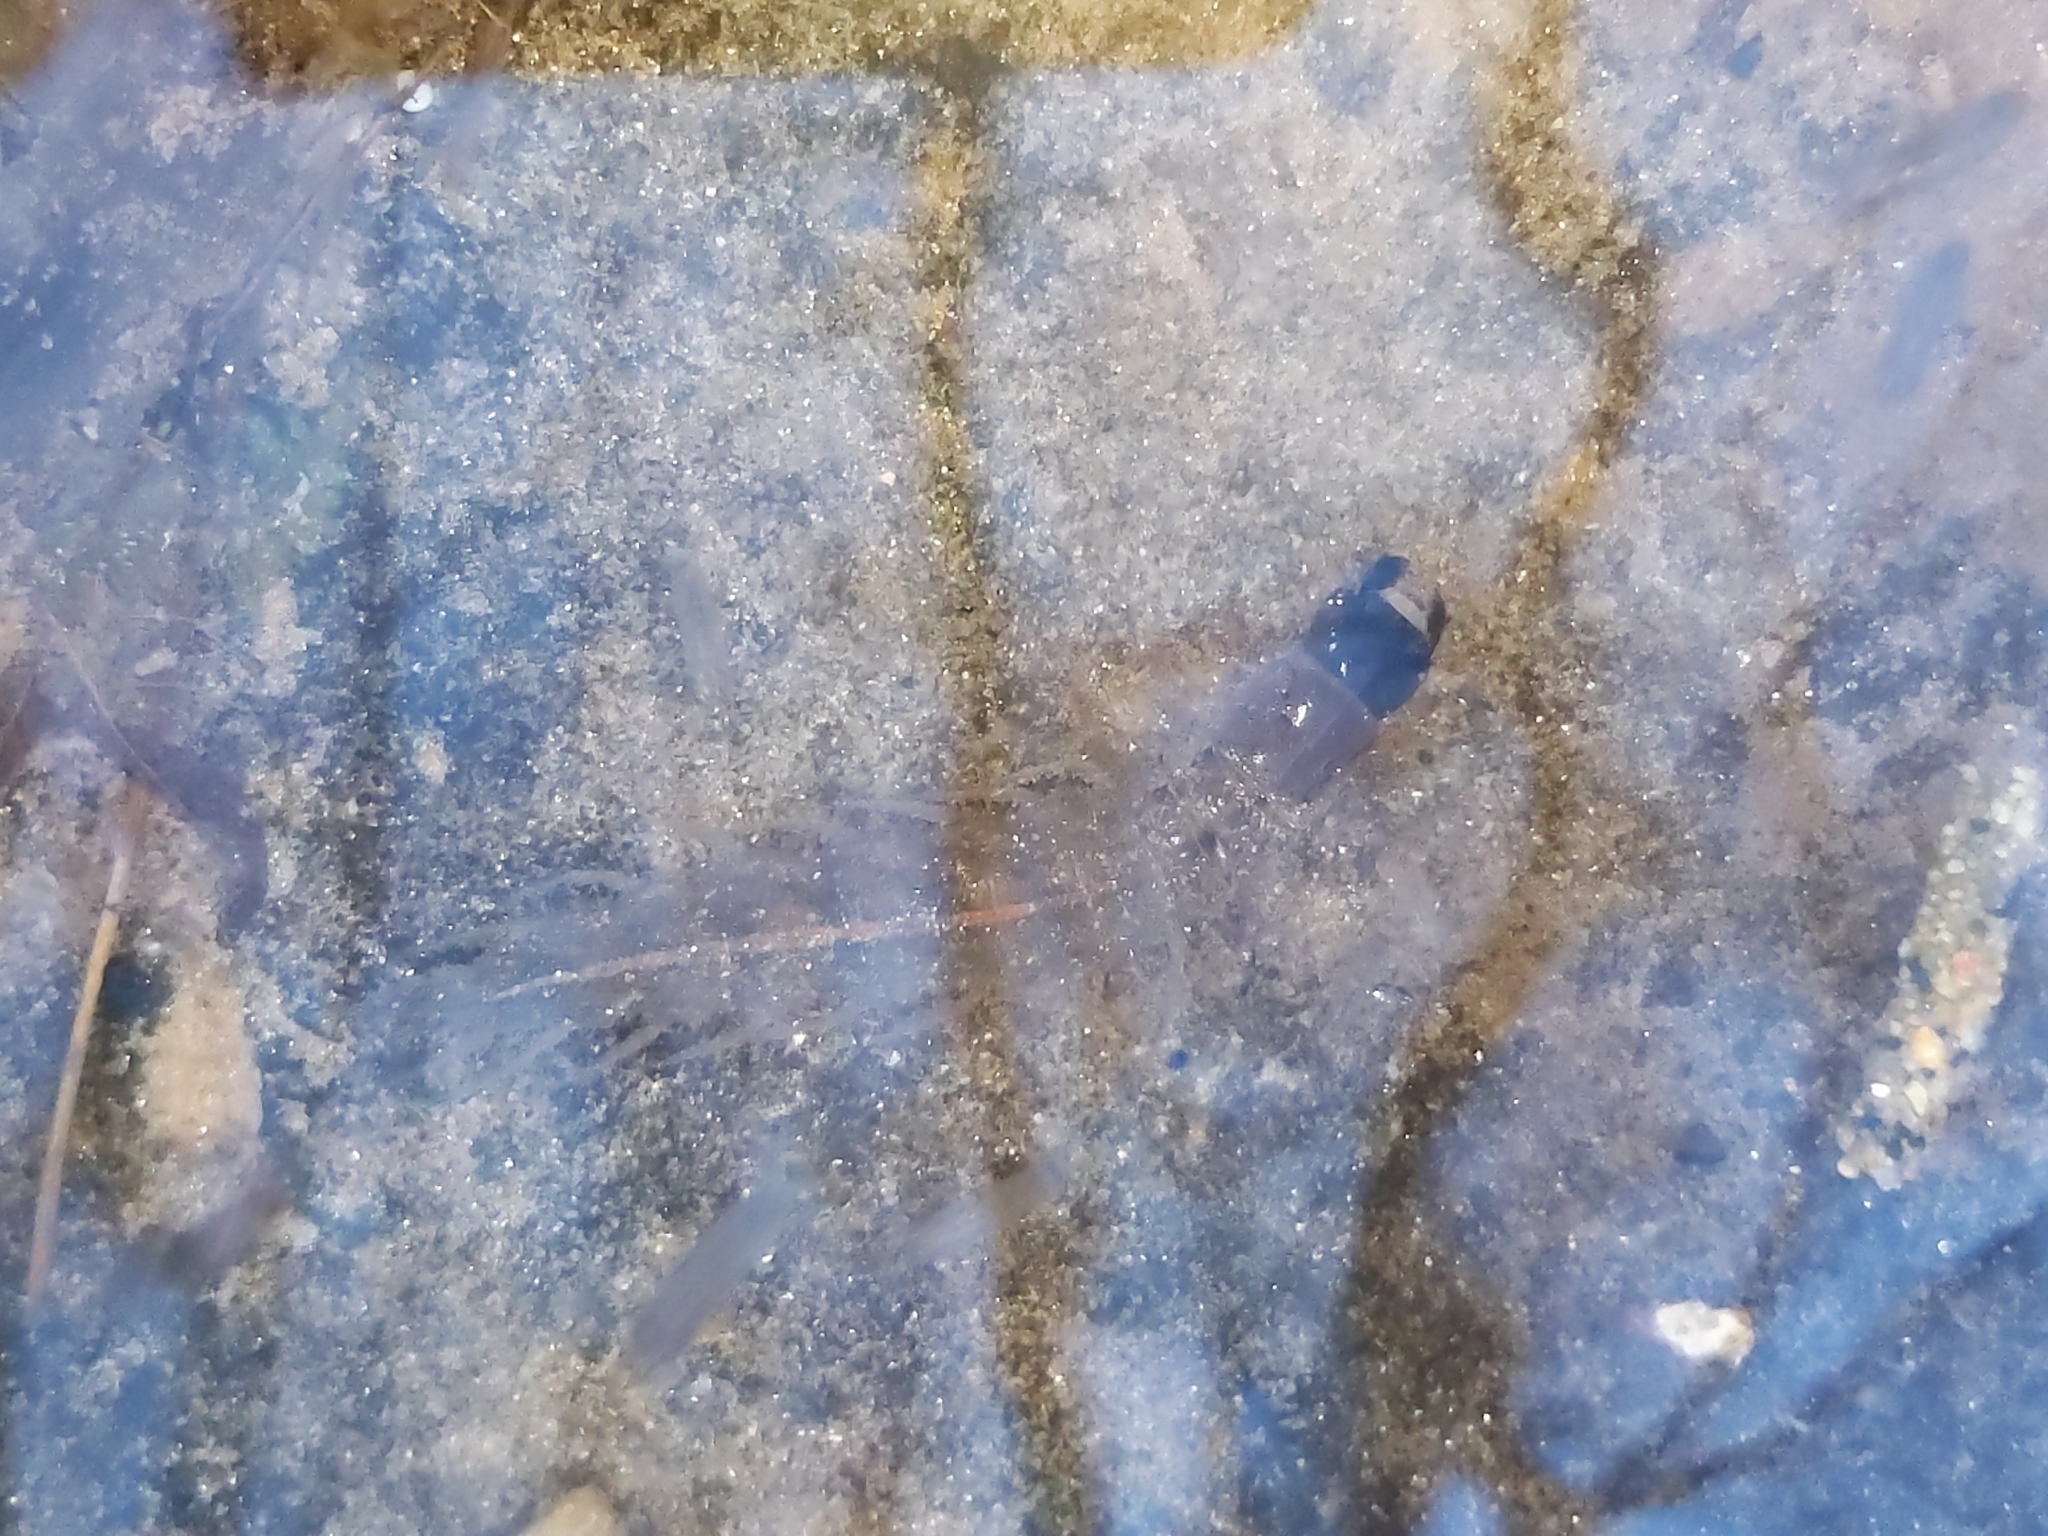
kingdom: Animalia
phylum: Arthropoda
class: Insecta
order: Megaloptera
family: Corydalidae
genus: Chauliodes
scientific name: Chauliodes pectinicornis
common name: Summer fishfly
